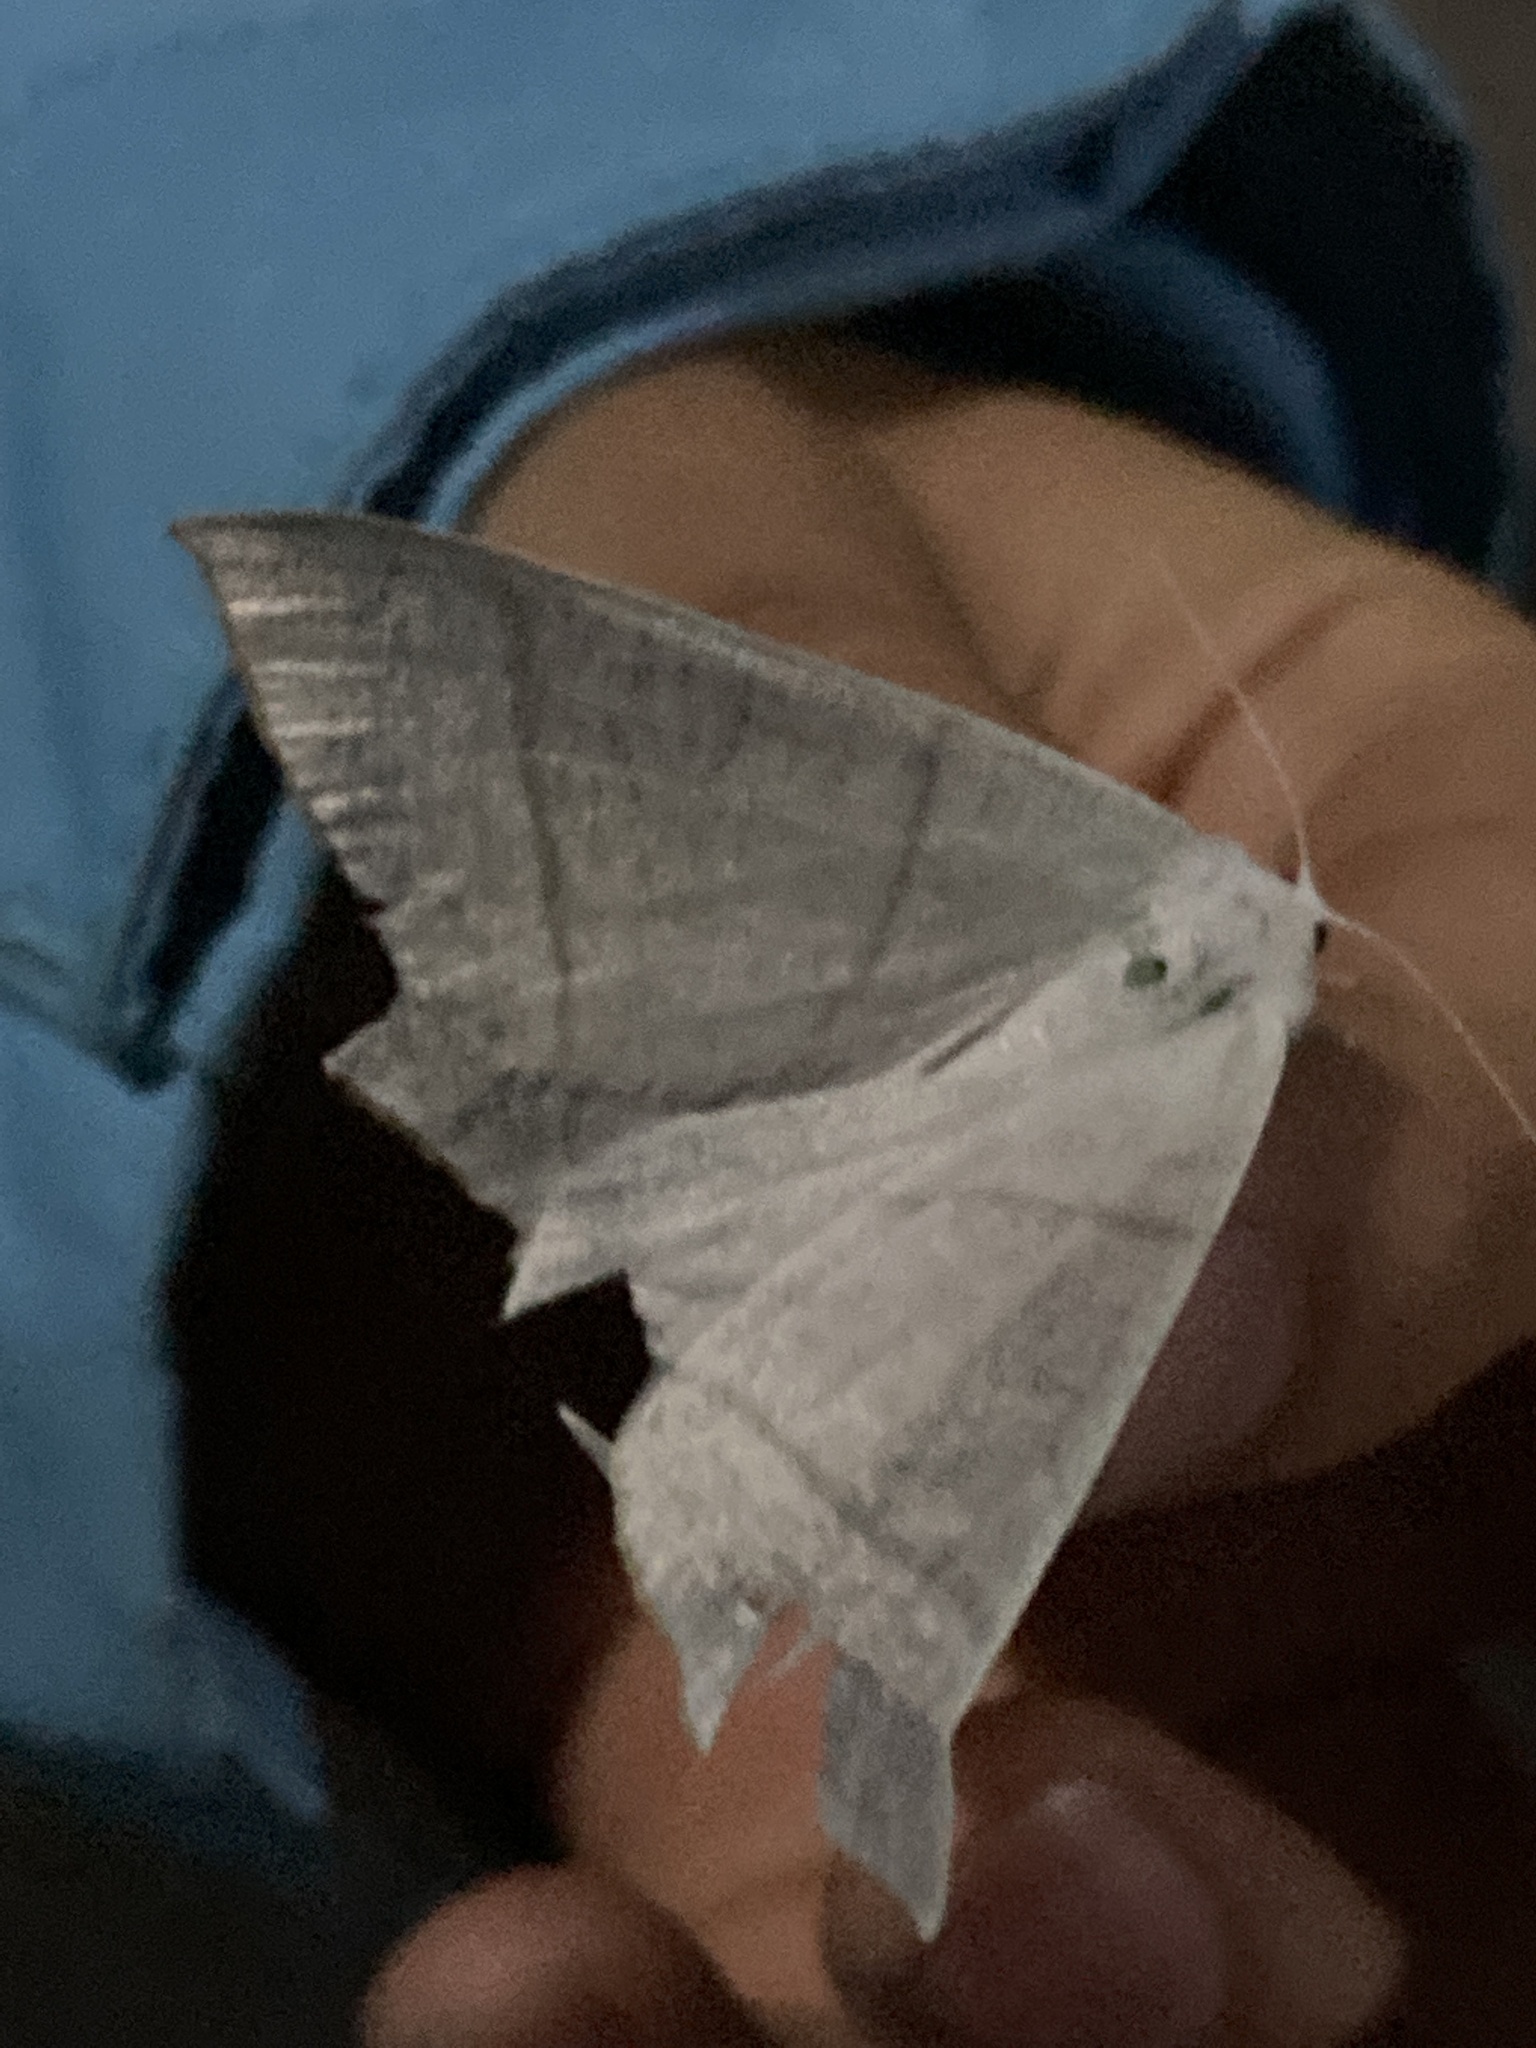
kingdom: Animalia
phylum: Arthropoda
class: Insecta
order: Lepidoptera
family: Geometridae
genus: Ourapteryx
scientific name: Ourapteryx
